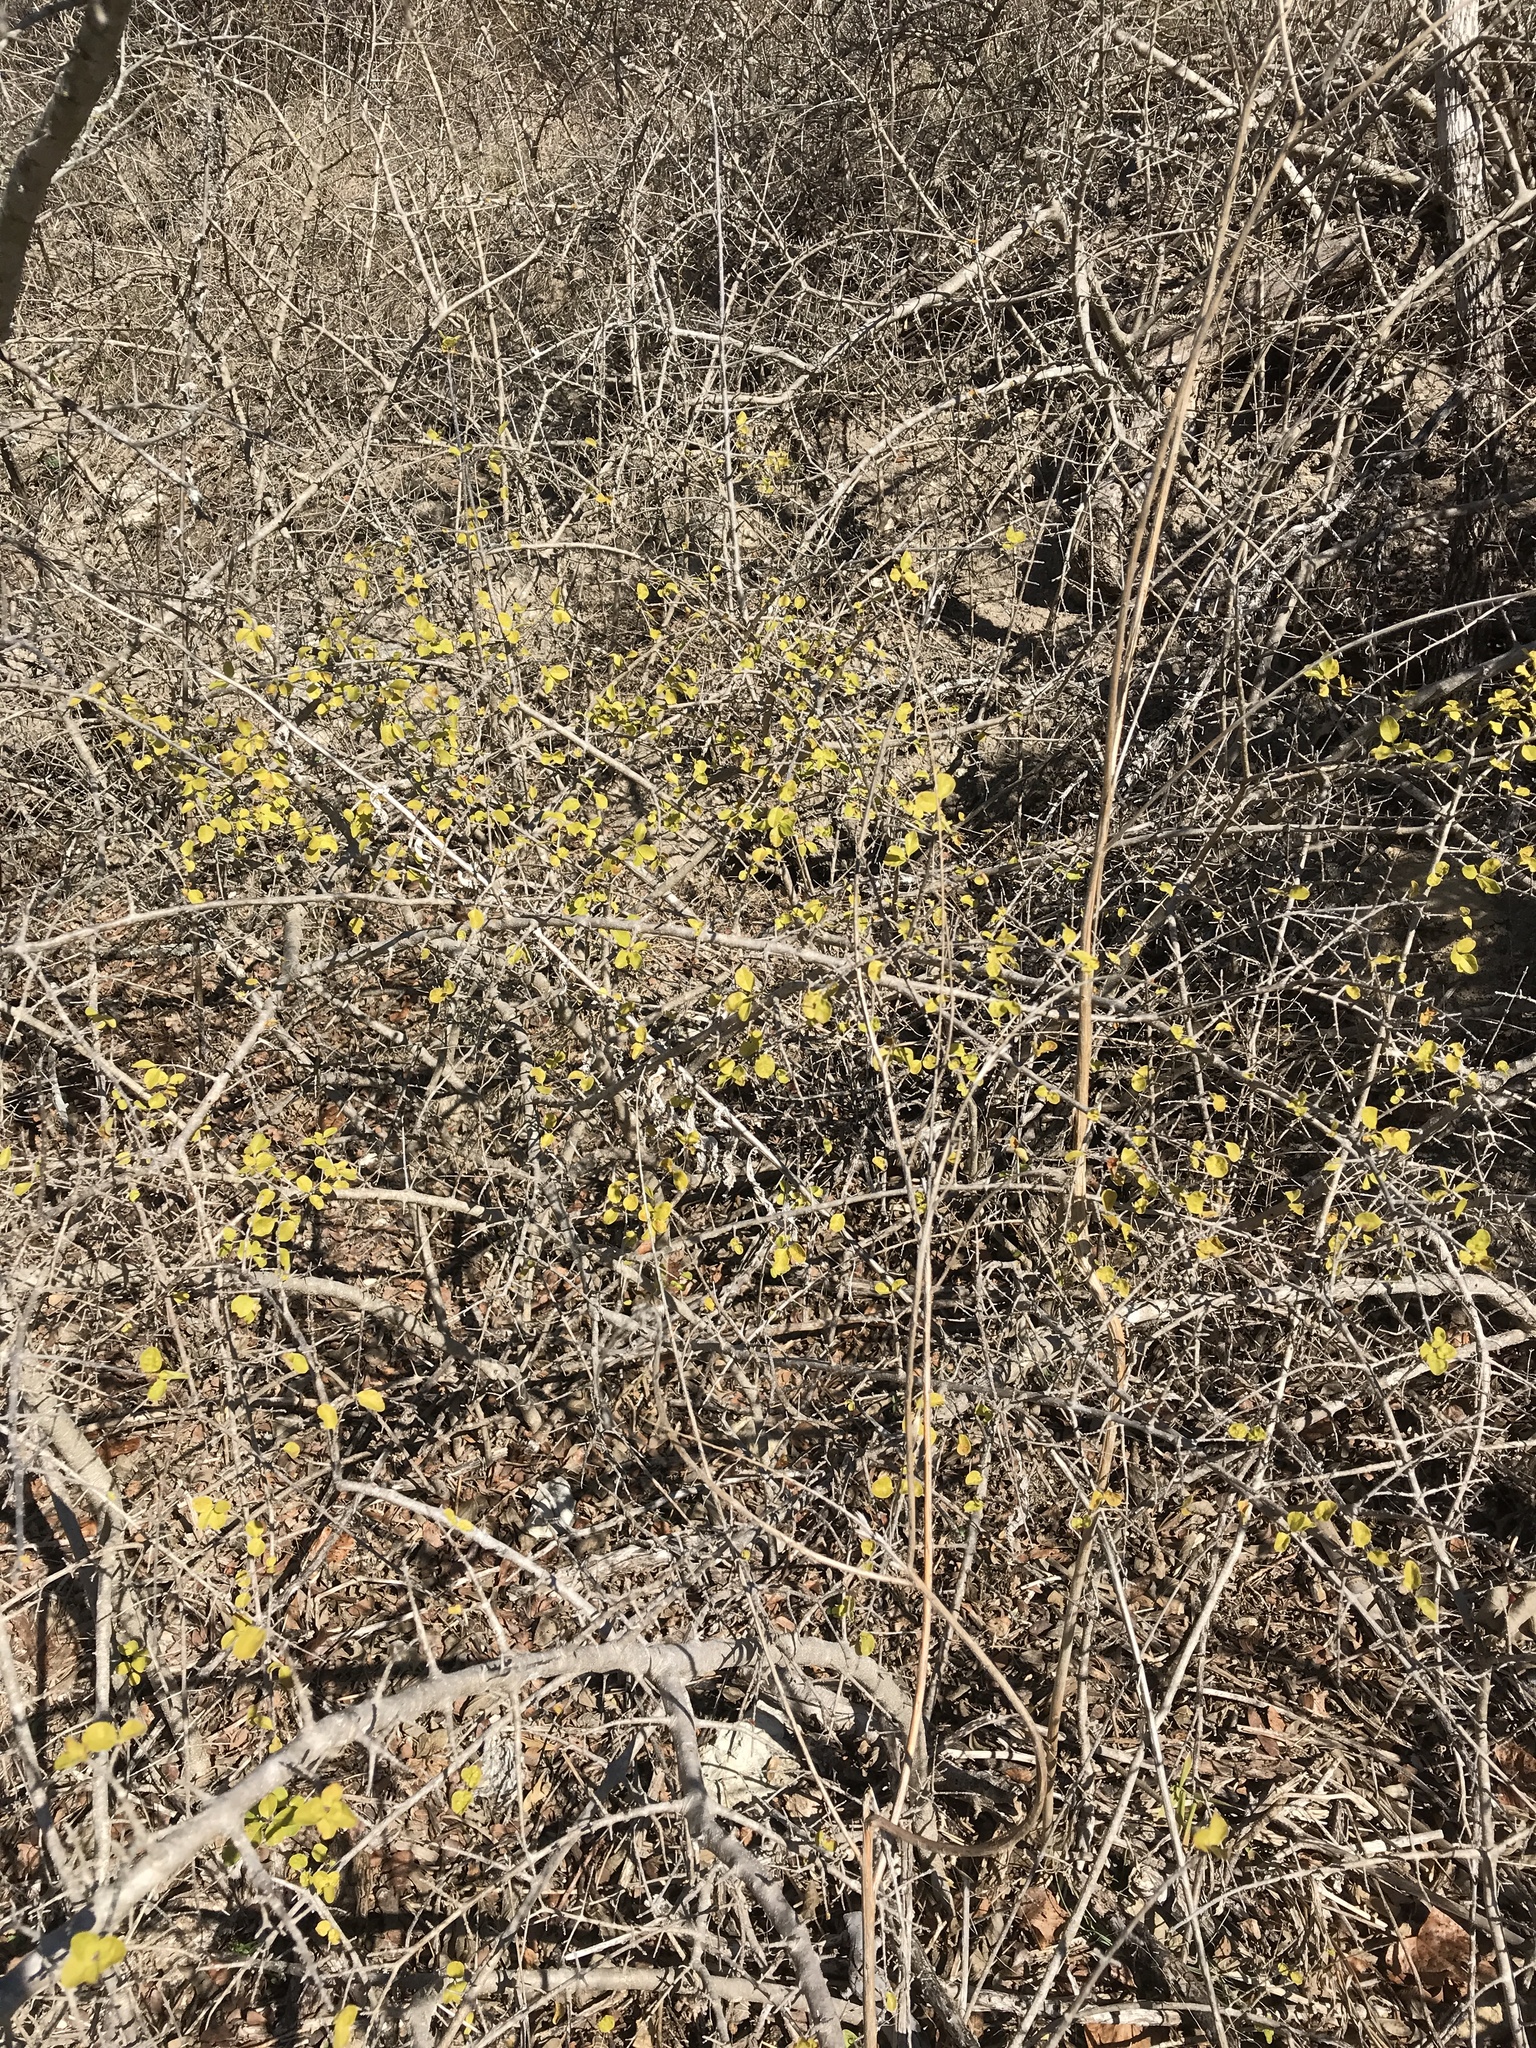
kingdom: Plantae
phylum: Tracheophyta
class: Magnoliopsida
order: Lamiales
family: Oleaceae
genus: Forestiera
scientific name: Forestiera pubescens
